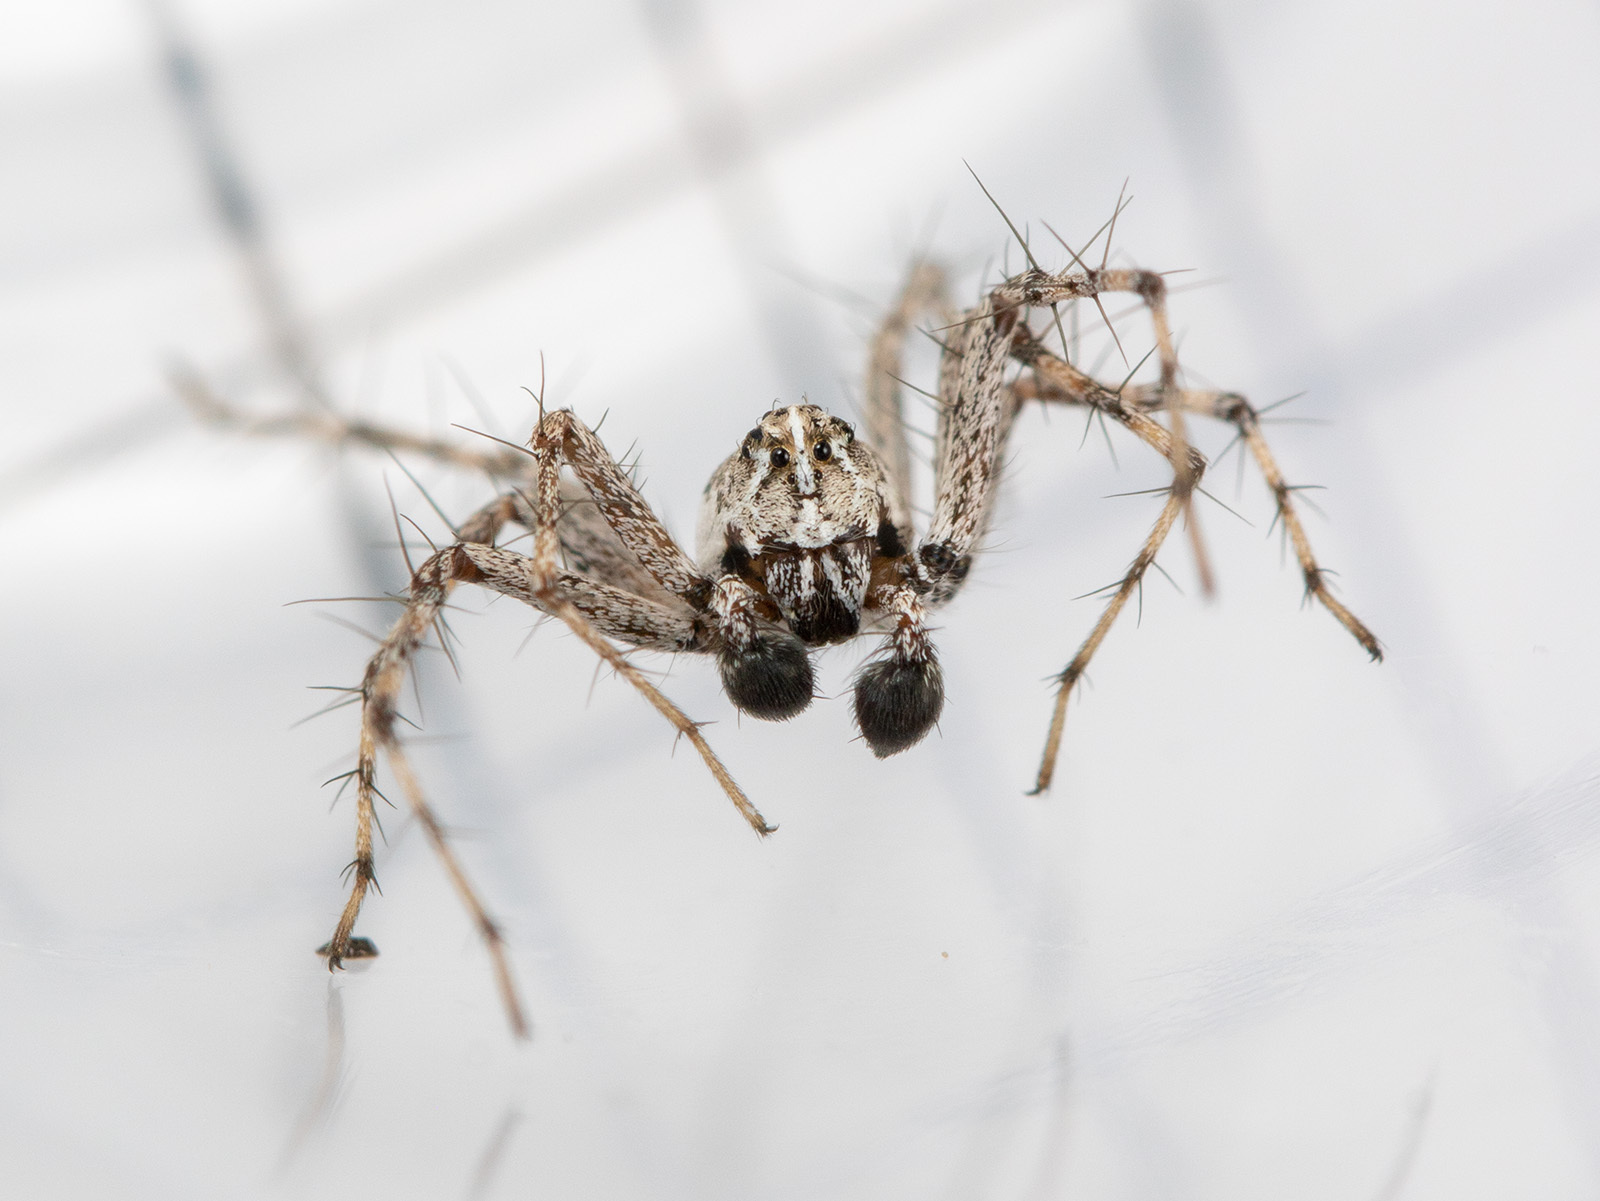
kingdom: Animalia
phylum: Arthropoda
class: Arachnida
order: Araneae
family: Oxyopidae
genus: Oxyopes
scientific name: Oxyopes globifer
